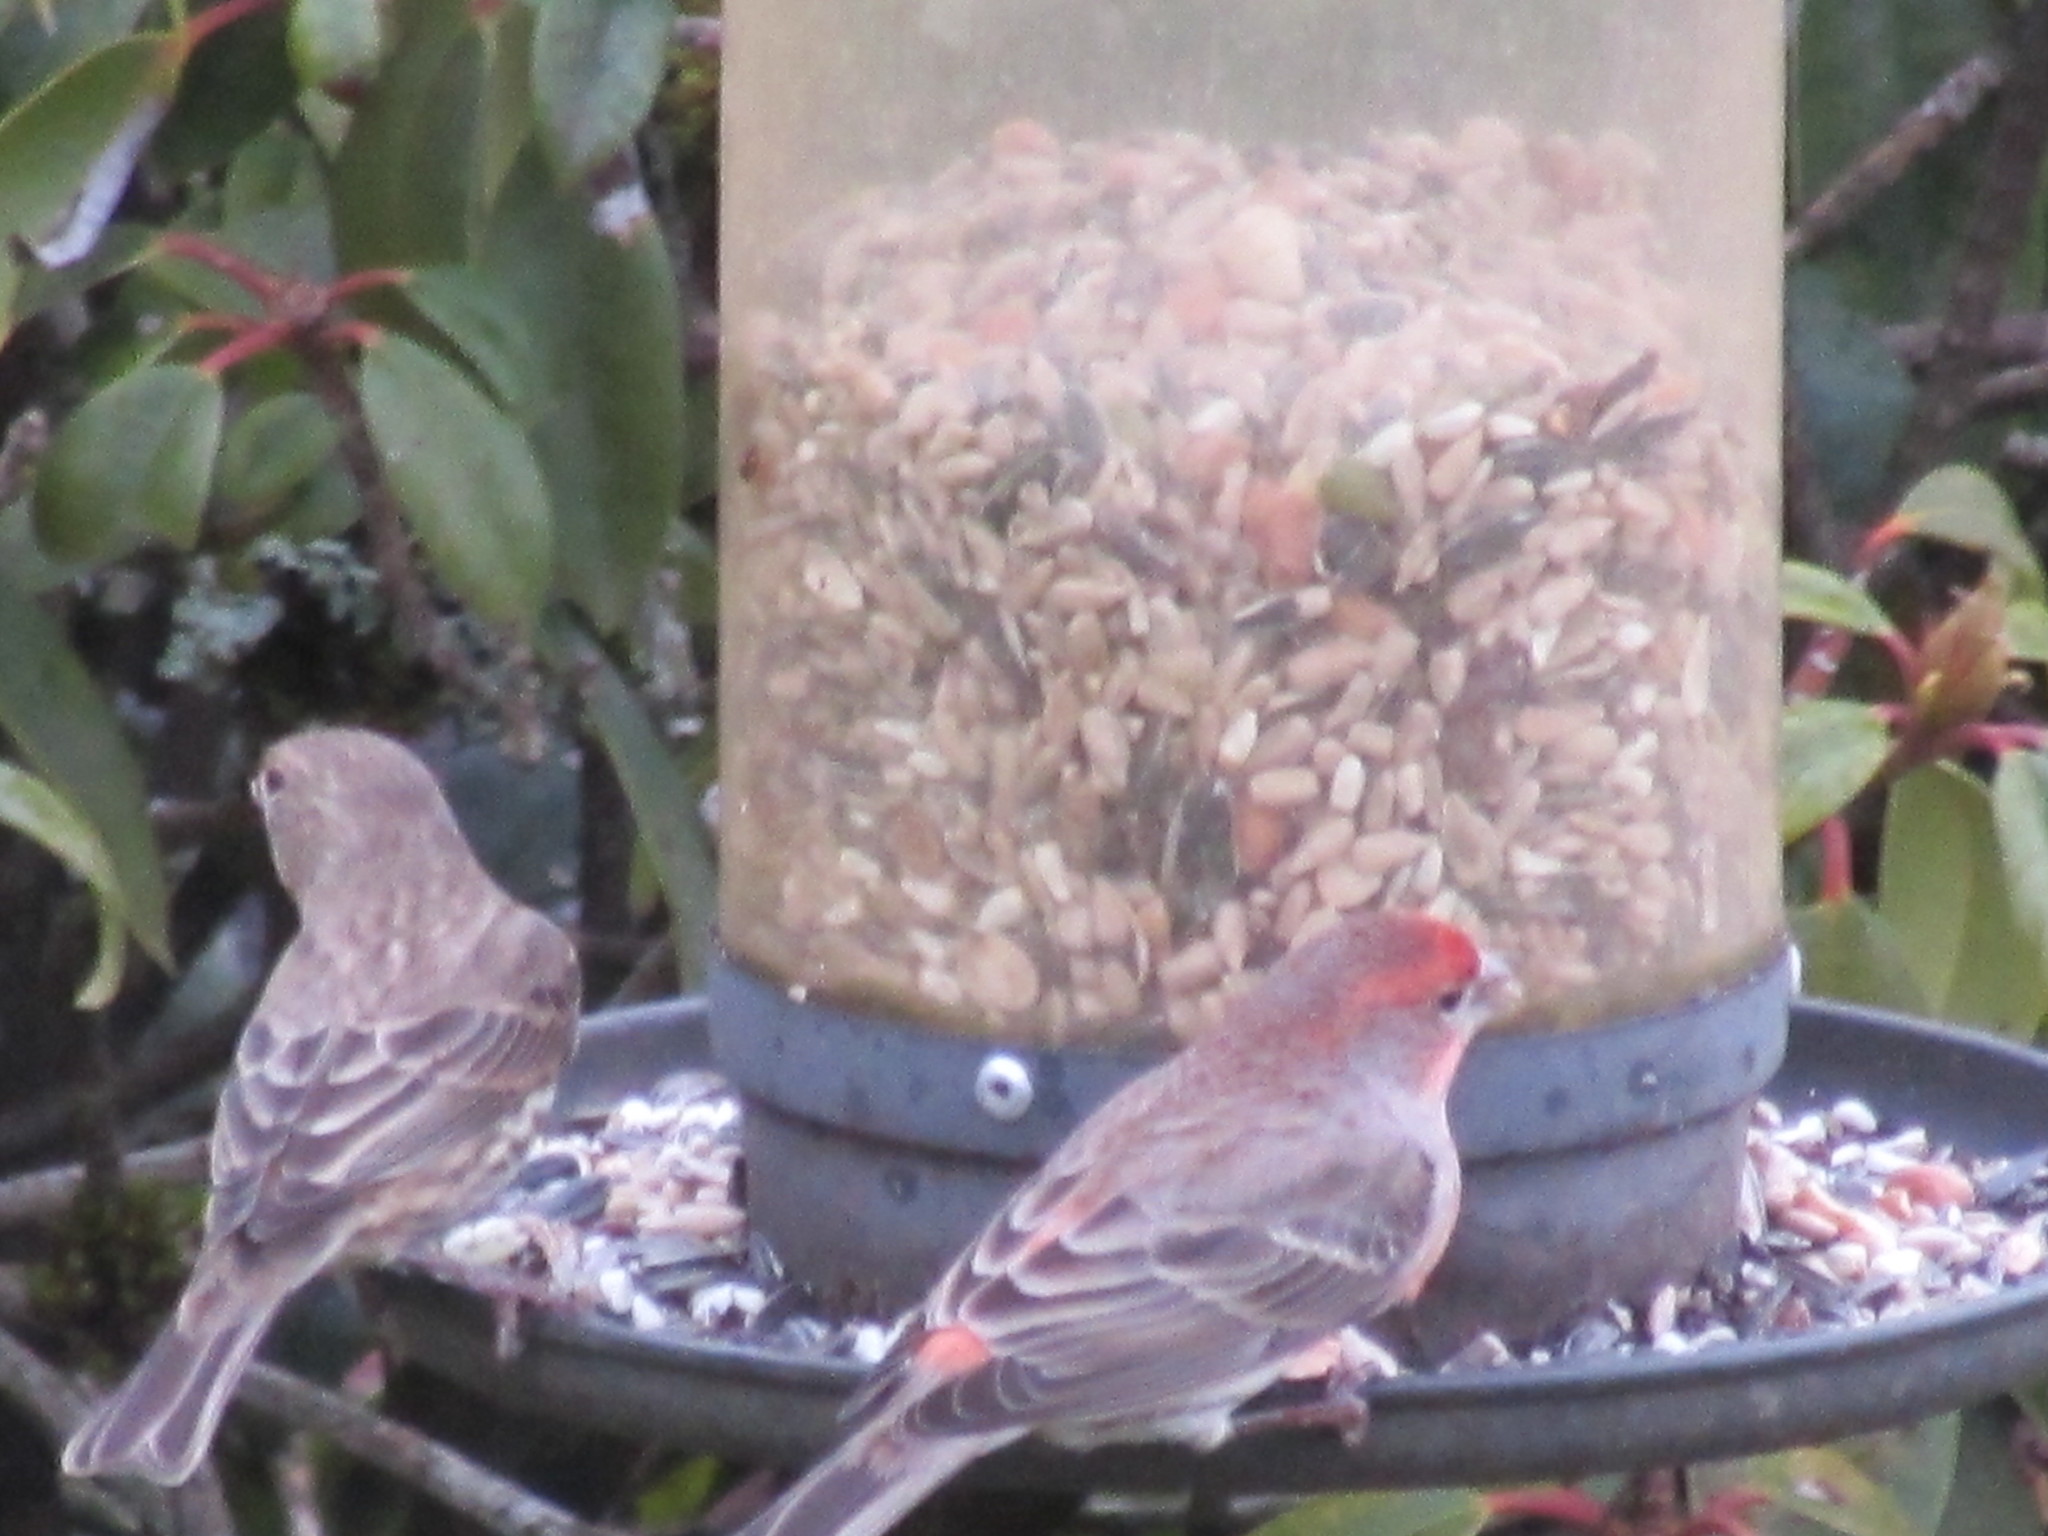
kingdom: Animalia
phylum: Chordata
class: Aves
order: Passeriformes
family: Fringillidae
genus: Haemorhous
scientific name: Haemorhous mexicanus
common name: House finch
